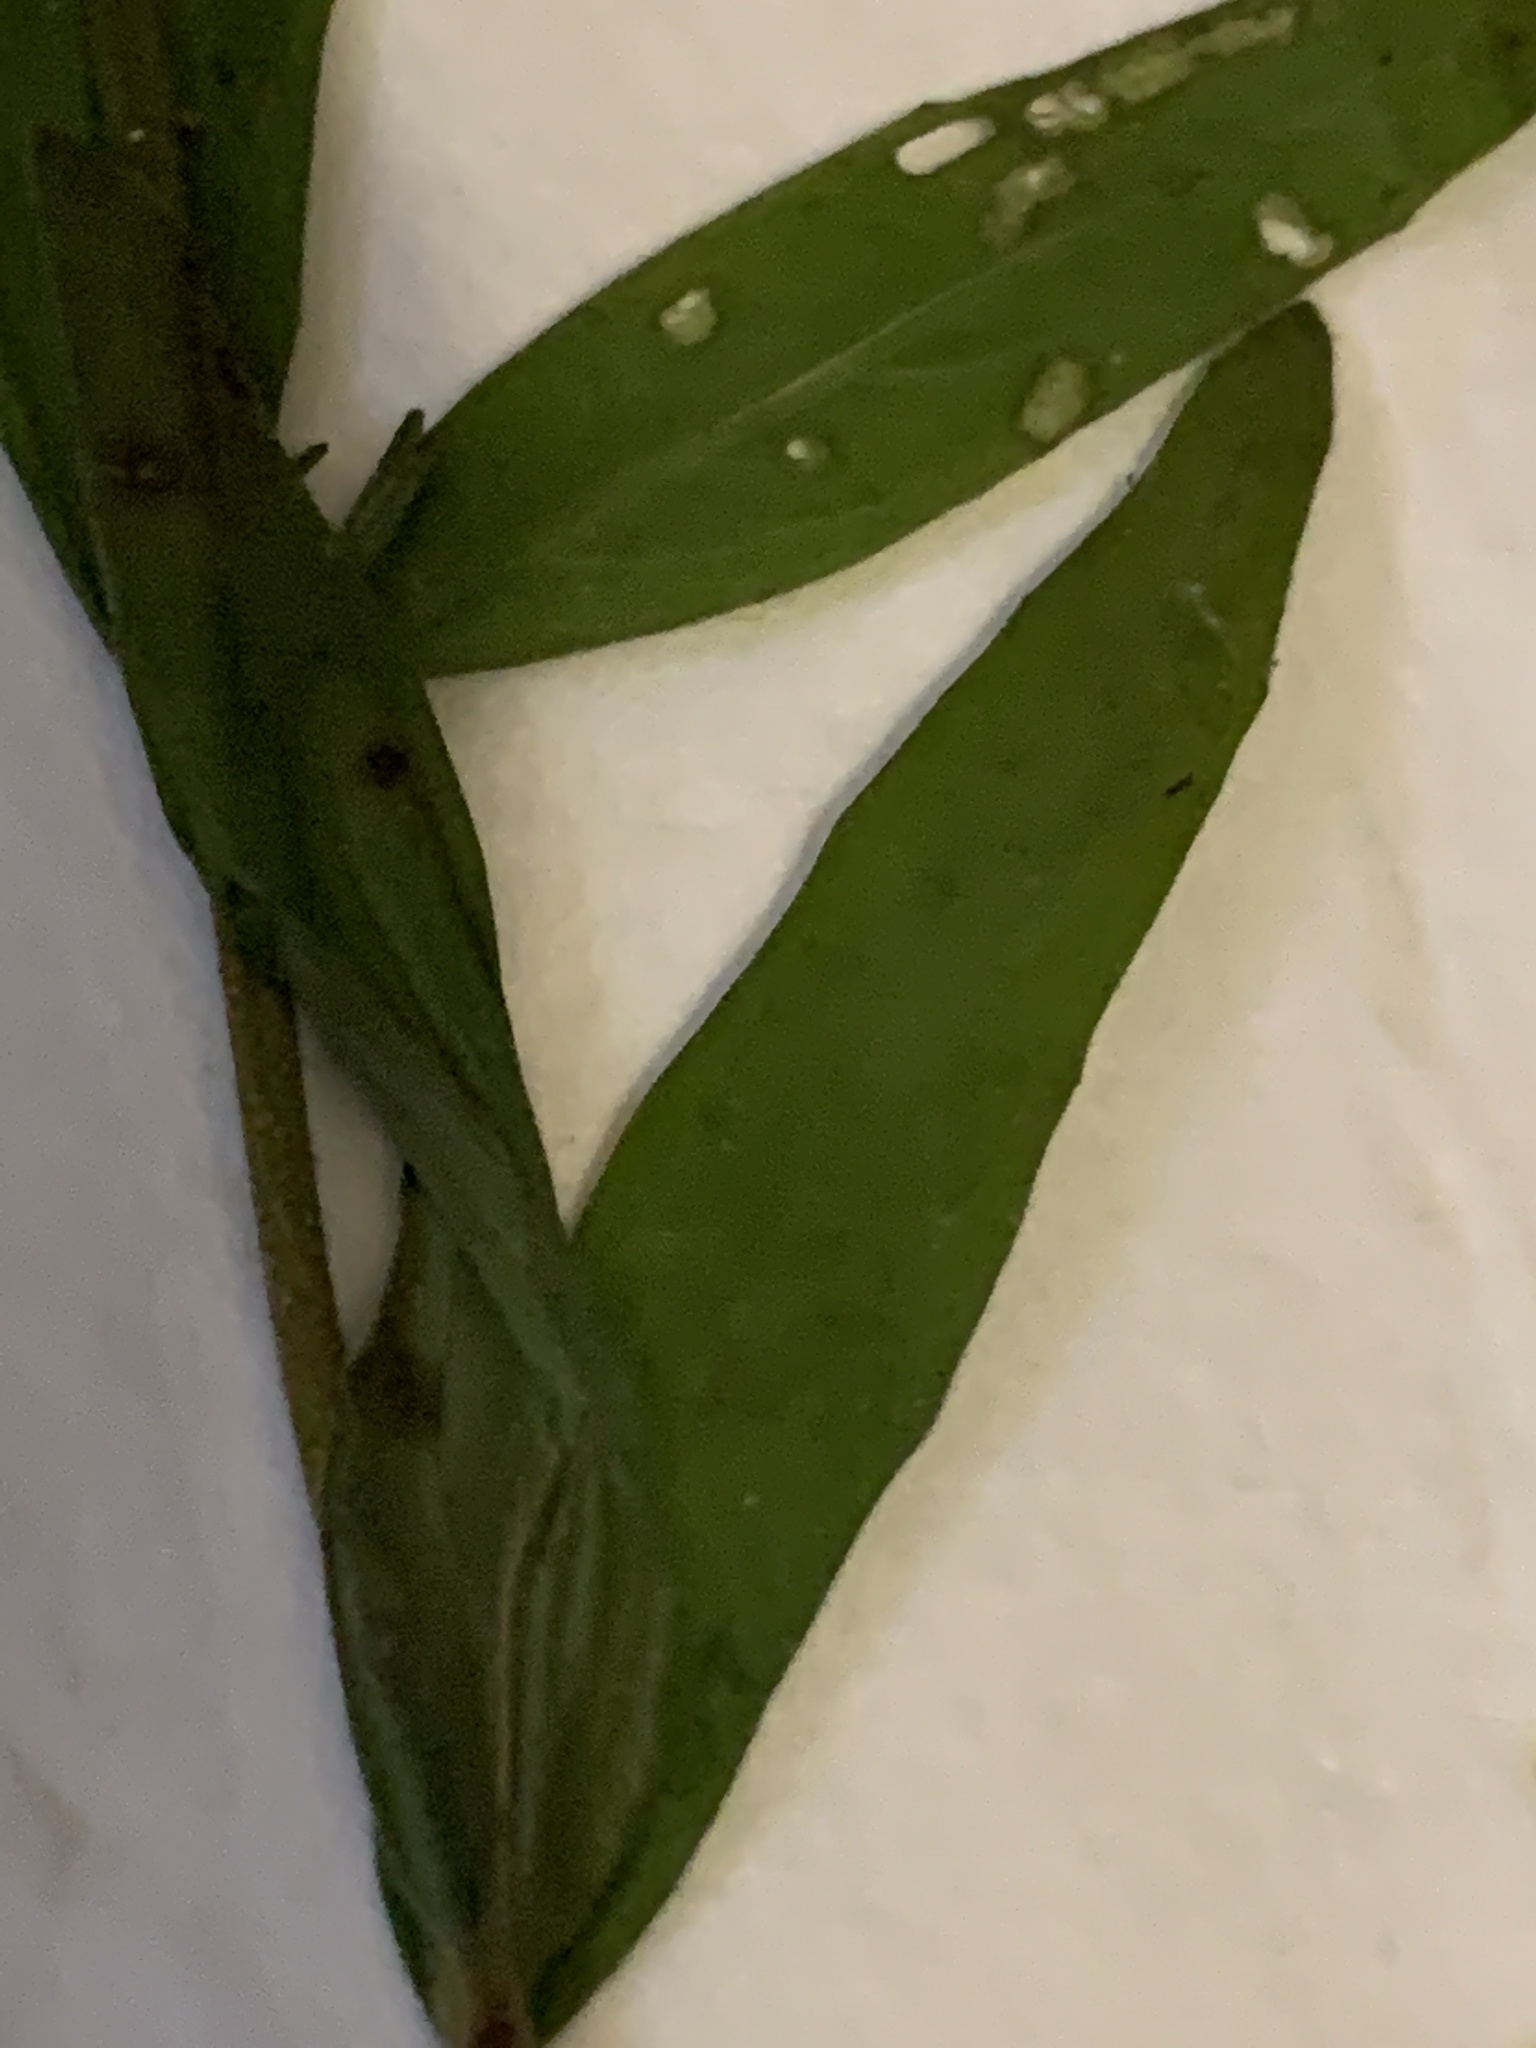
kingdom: Plantae
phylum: Tracheophyta
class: Magnoliopsida
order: Myrtales
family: Onagraceae
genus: Epilobium
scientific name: Epilobium densum
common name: Downy willowherb
